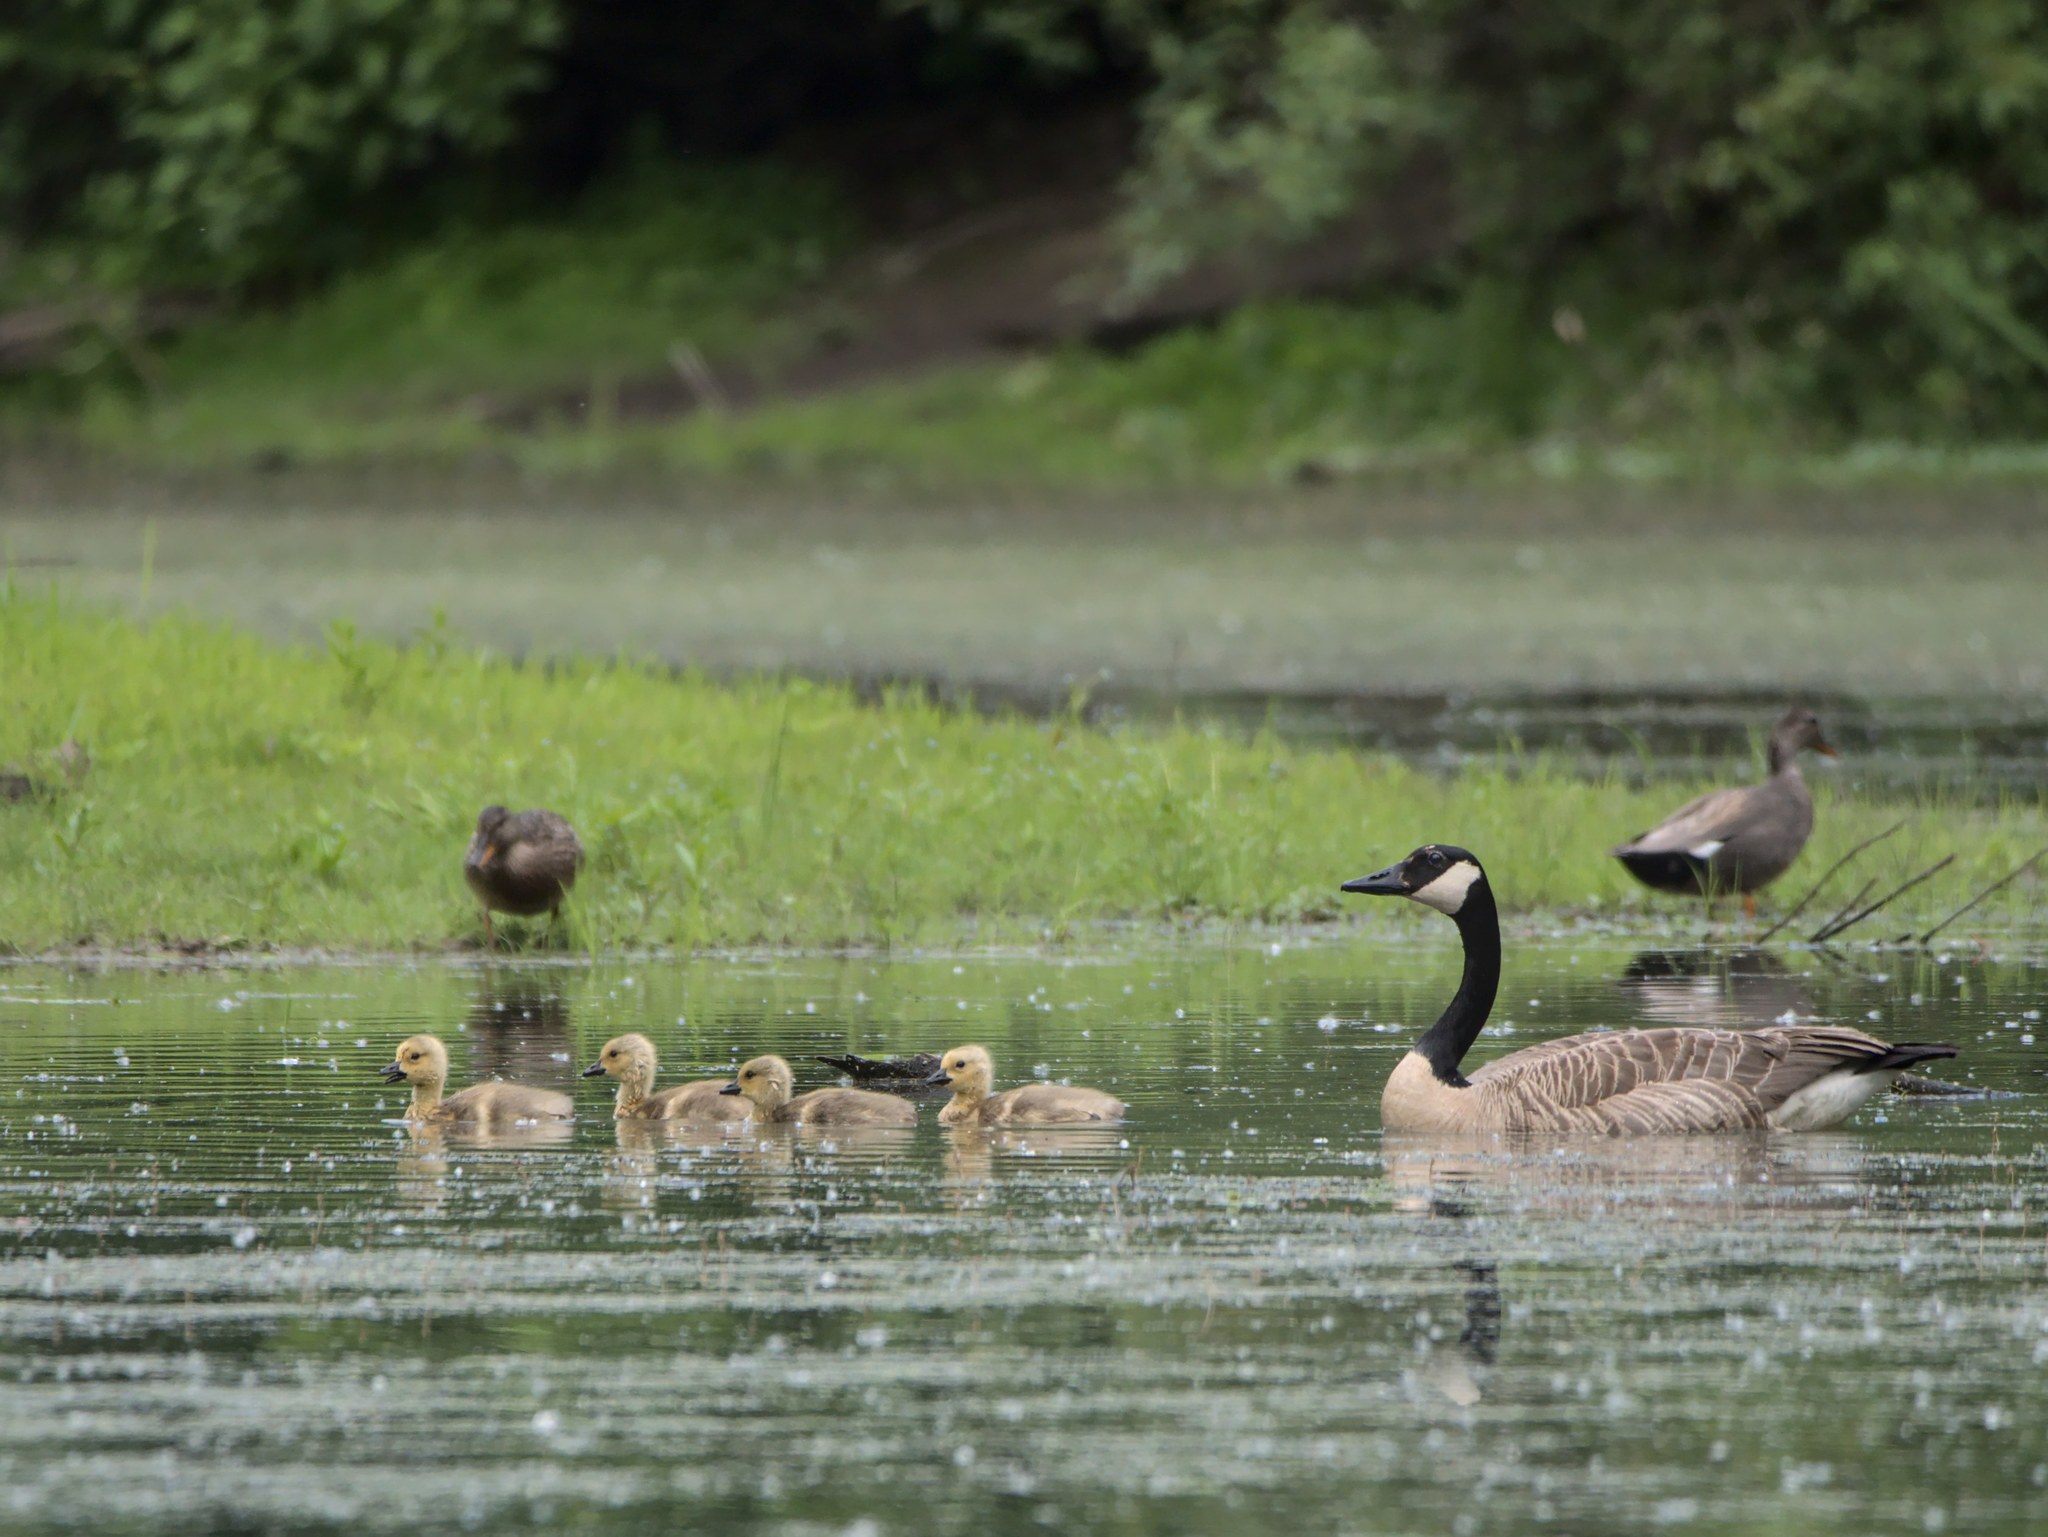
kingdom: Animalia
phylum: Chordata
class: Aves
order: Anseriformes
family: Anatidae
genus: Branta
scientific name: Branta canadensis
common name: Canada goose
